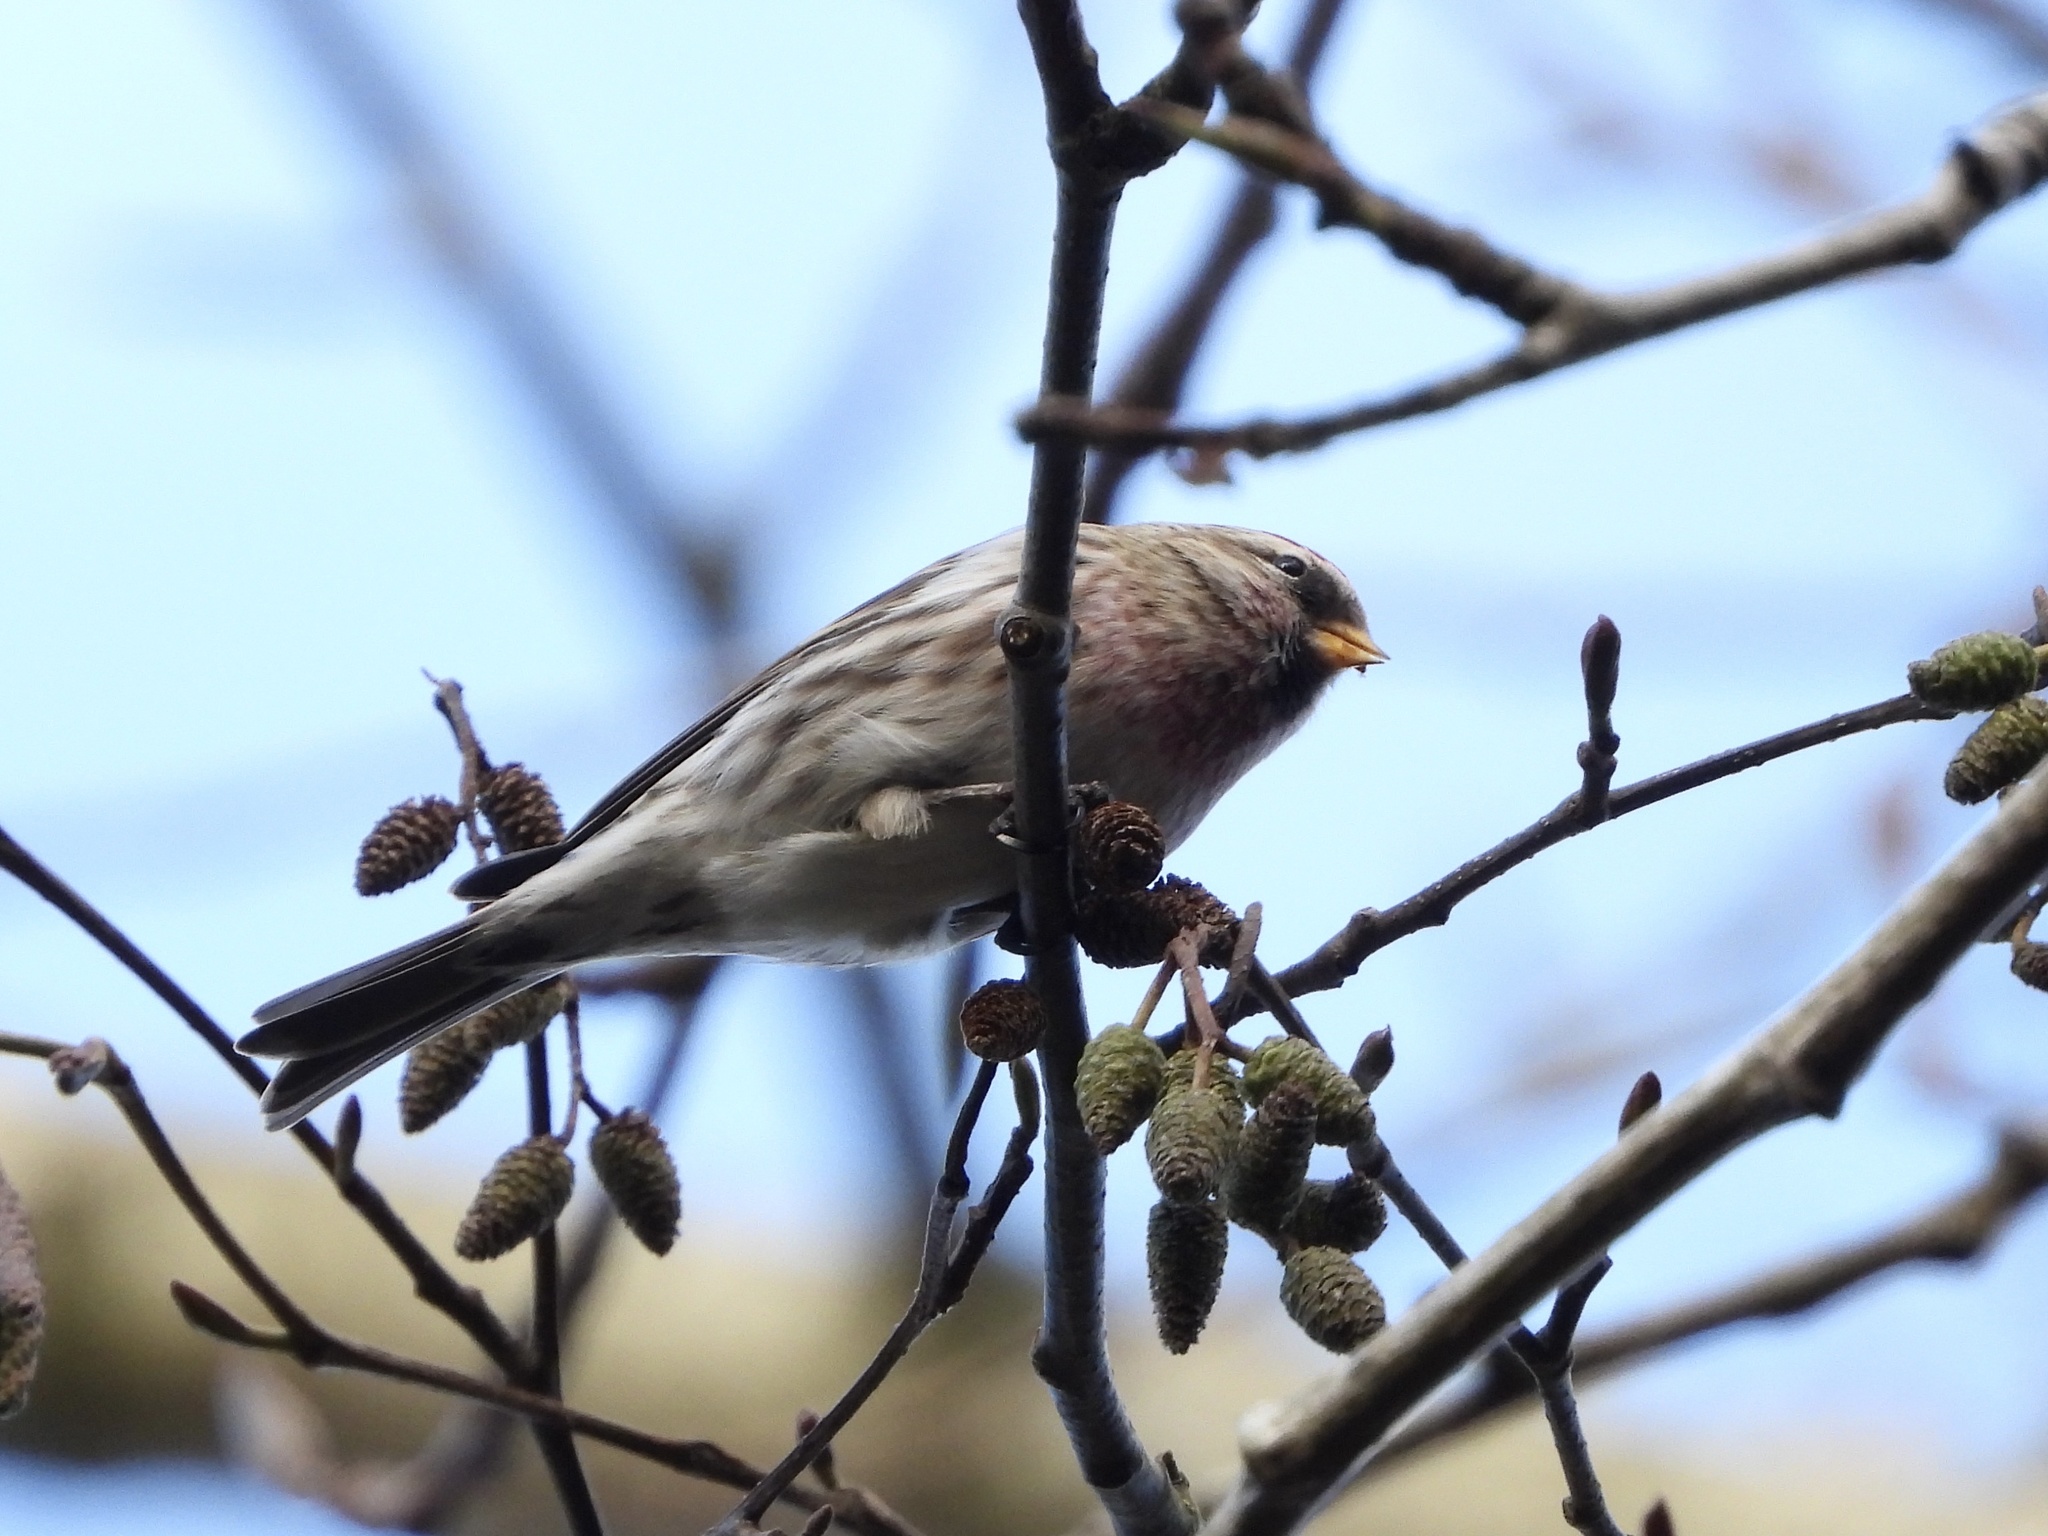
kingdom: Animalia
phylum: Chordata
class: Aves
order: Passeriformes
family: Fringillidae
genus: Acanthis
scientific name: Acanthis flammea
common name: Common redpoll
